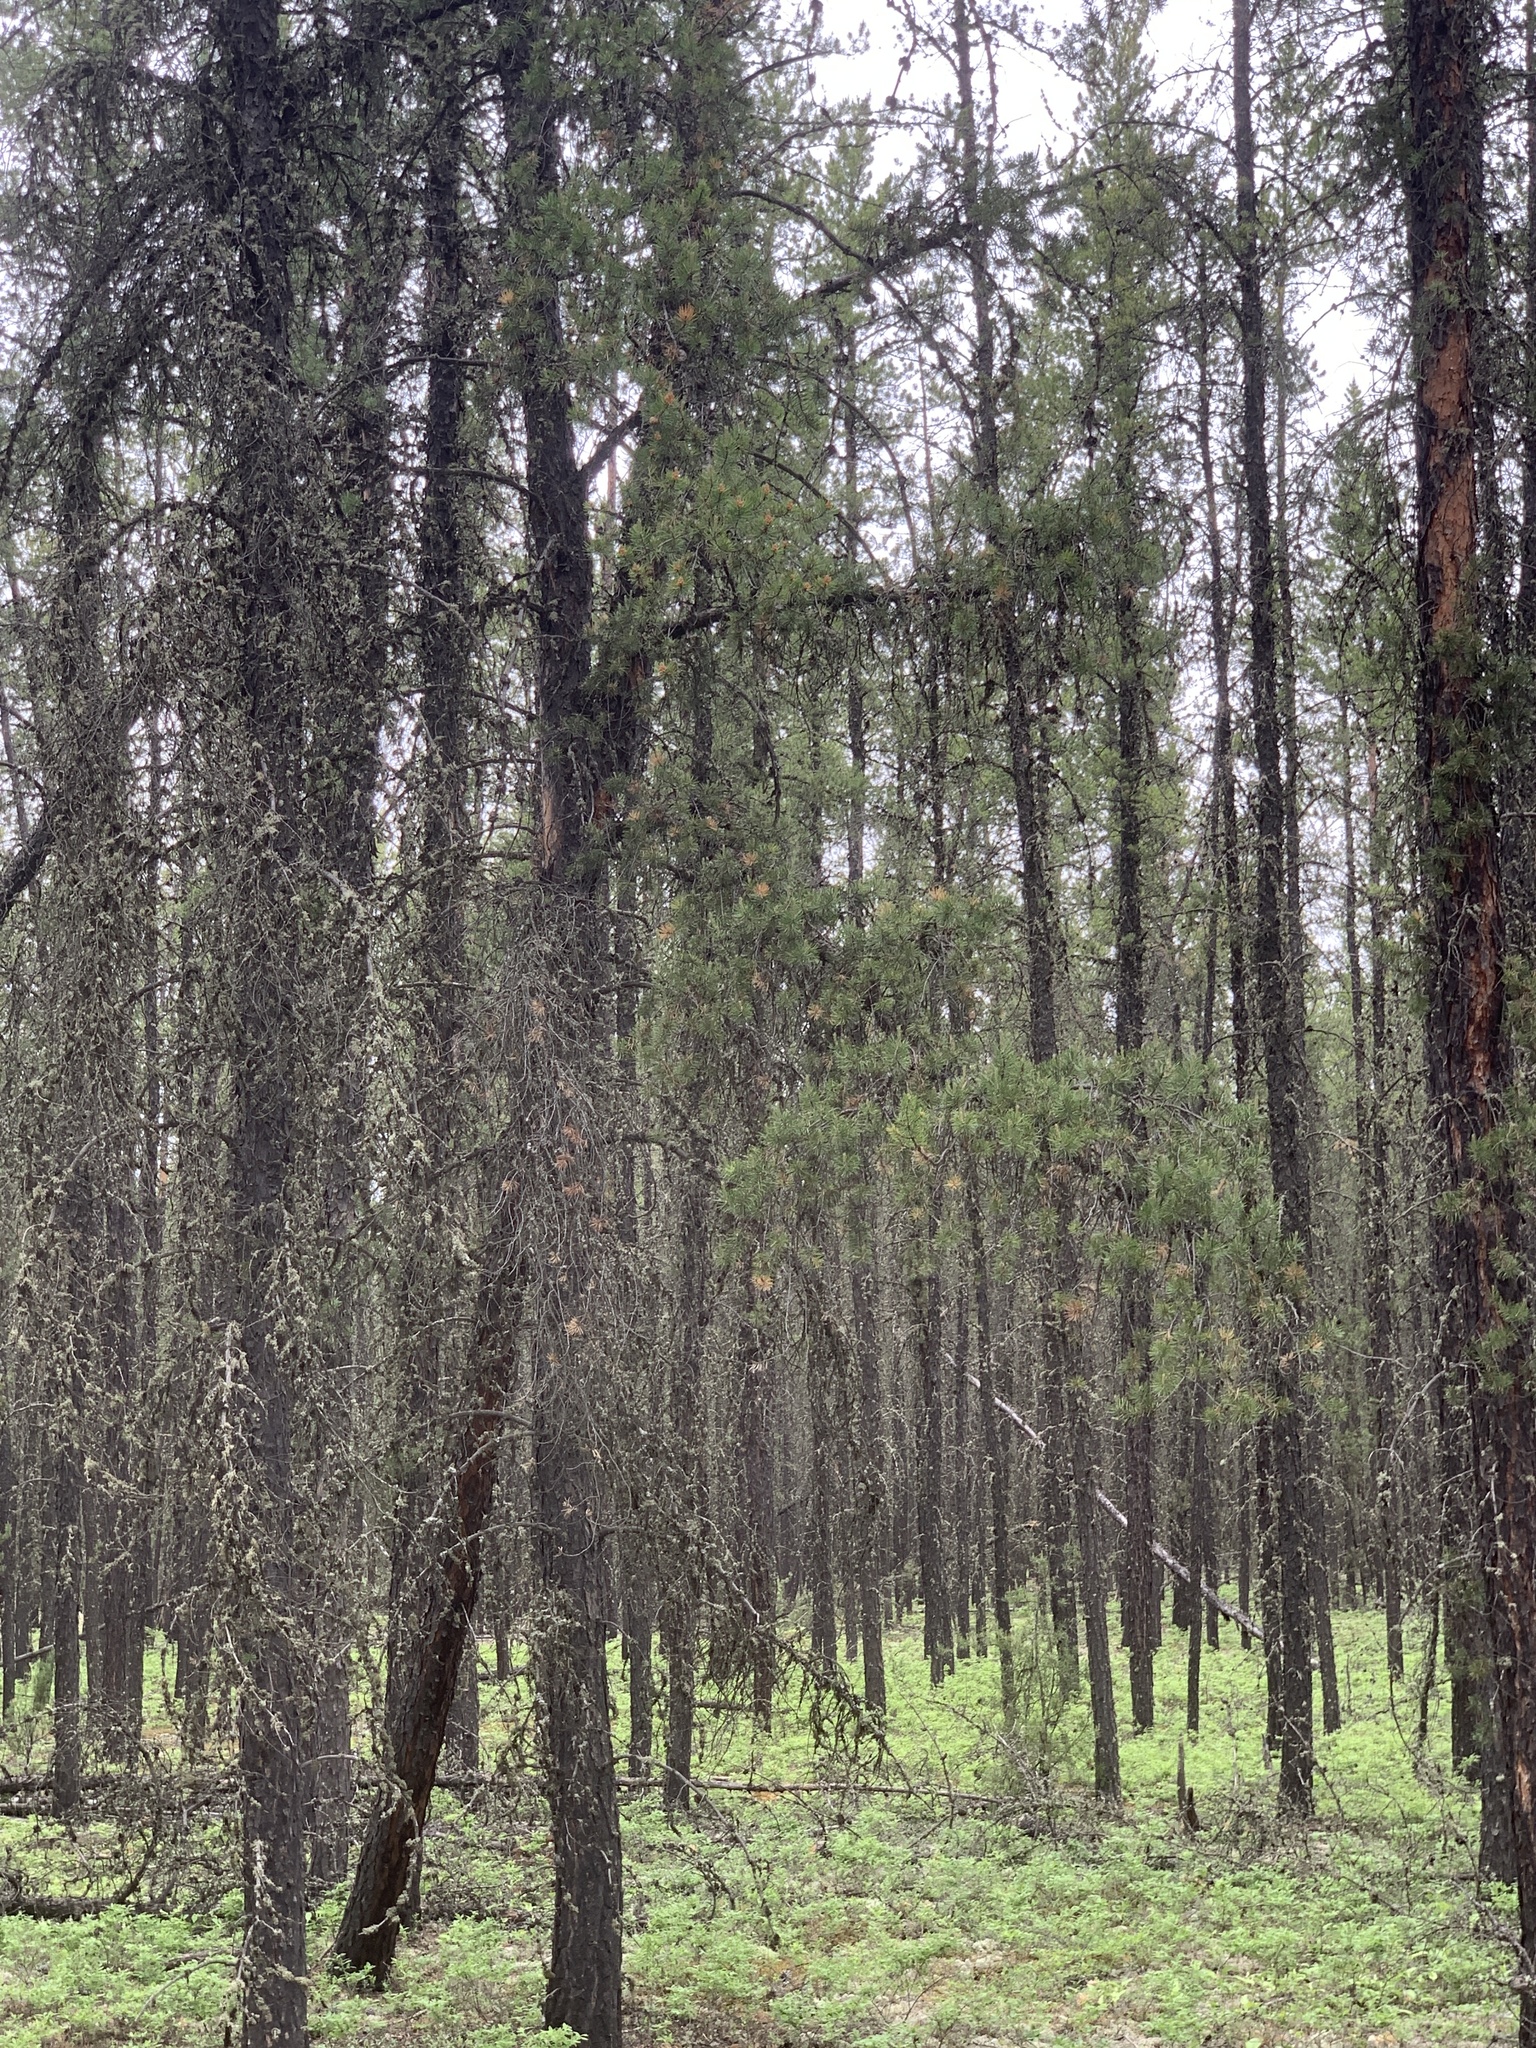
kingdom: Plantae
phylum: Tracheophyta
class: Pinopsida
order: Pinales
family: Pinaceae
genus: Pinus
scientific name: Pinus banksiana
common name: Jack pine
